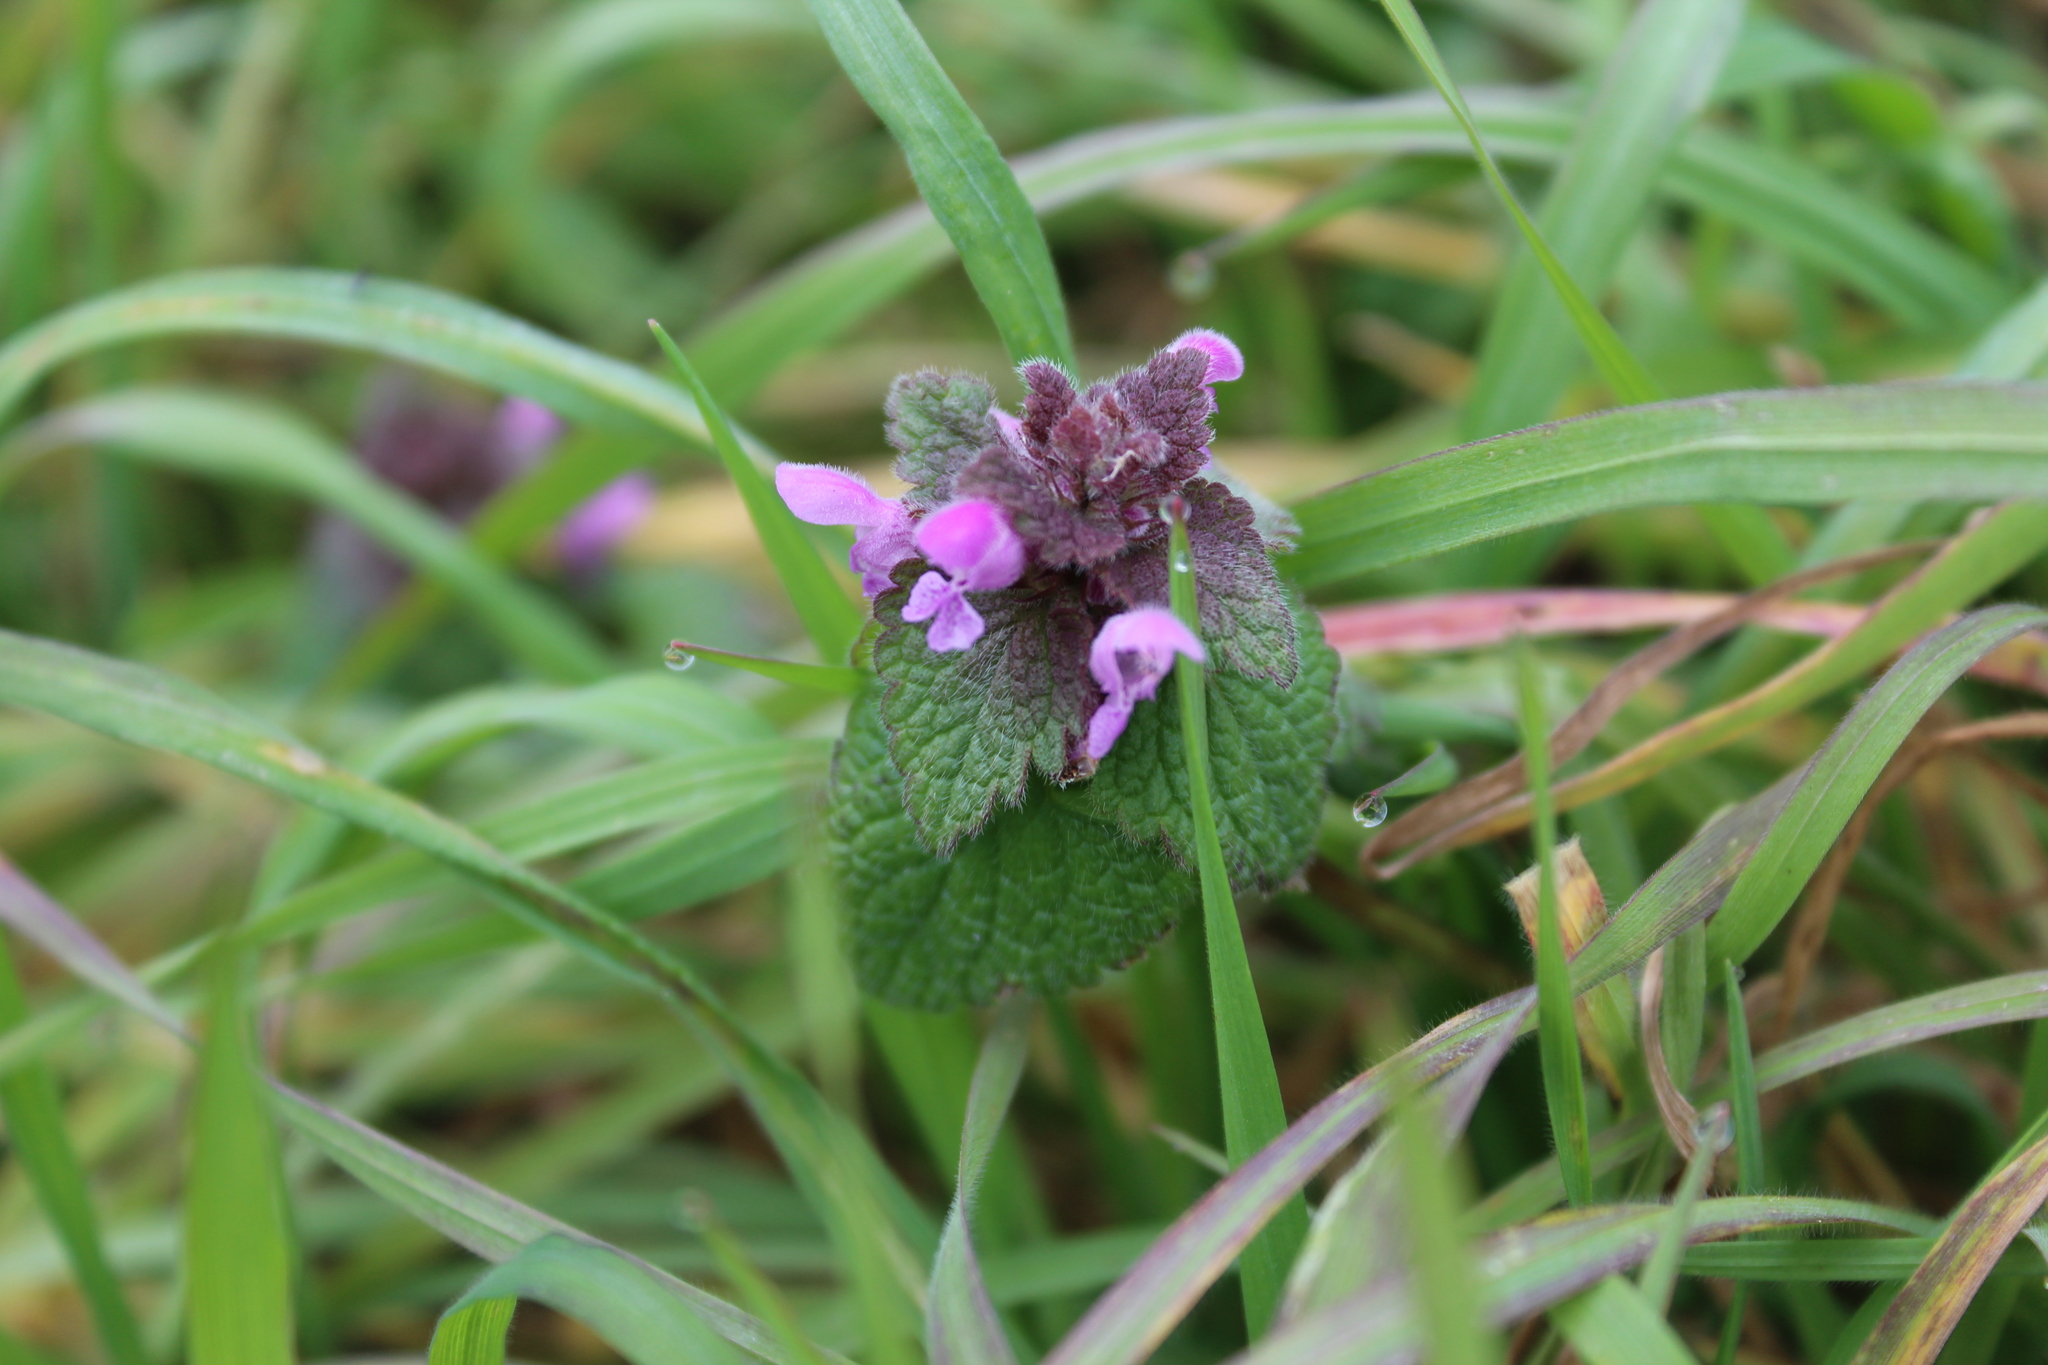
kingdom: Plantae
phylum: Tracheophyta
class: Magnoliopsida
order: Lamiales
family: Lamiaceae
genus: Lamium
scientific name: Lamium purpureum
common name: Red dead-nettle
